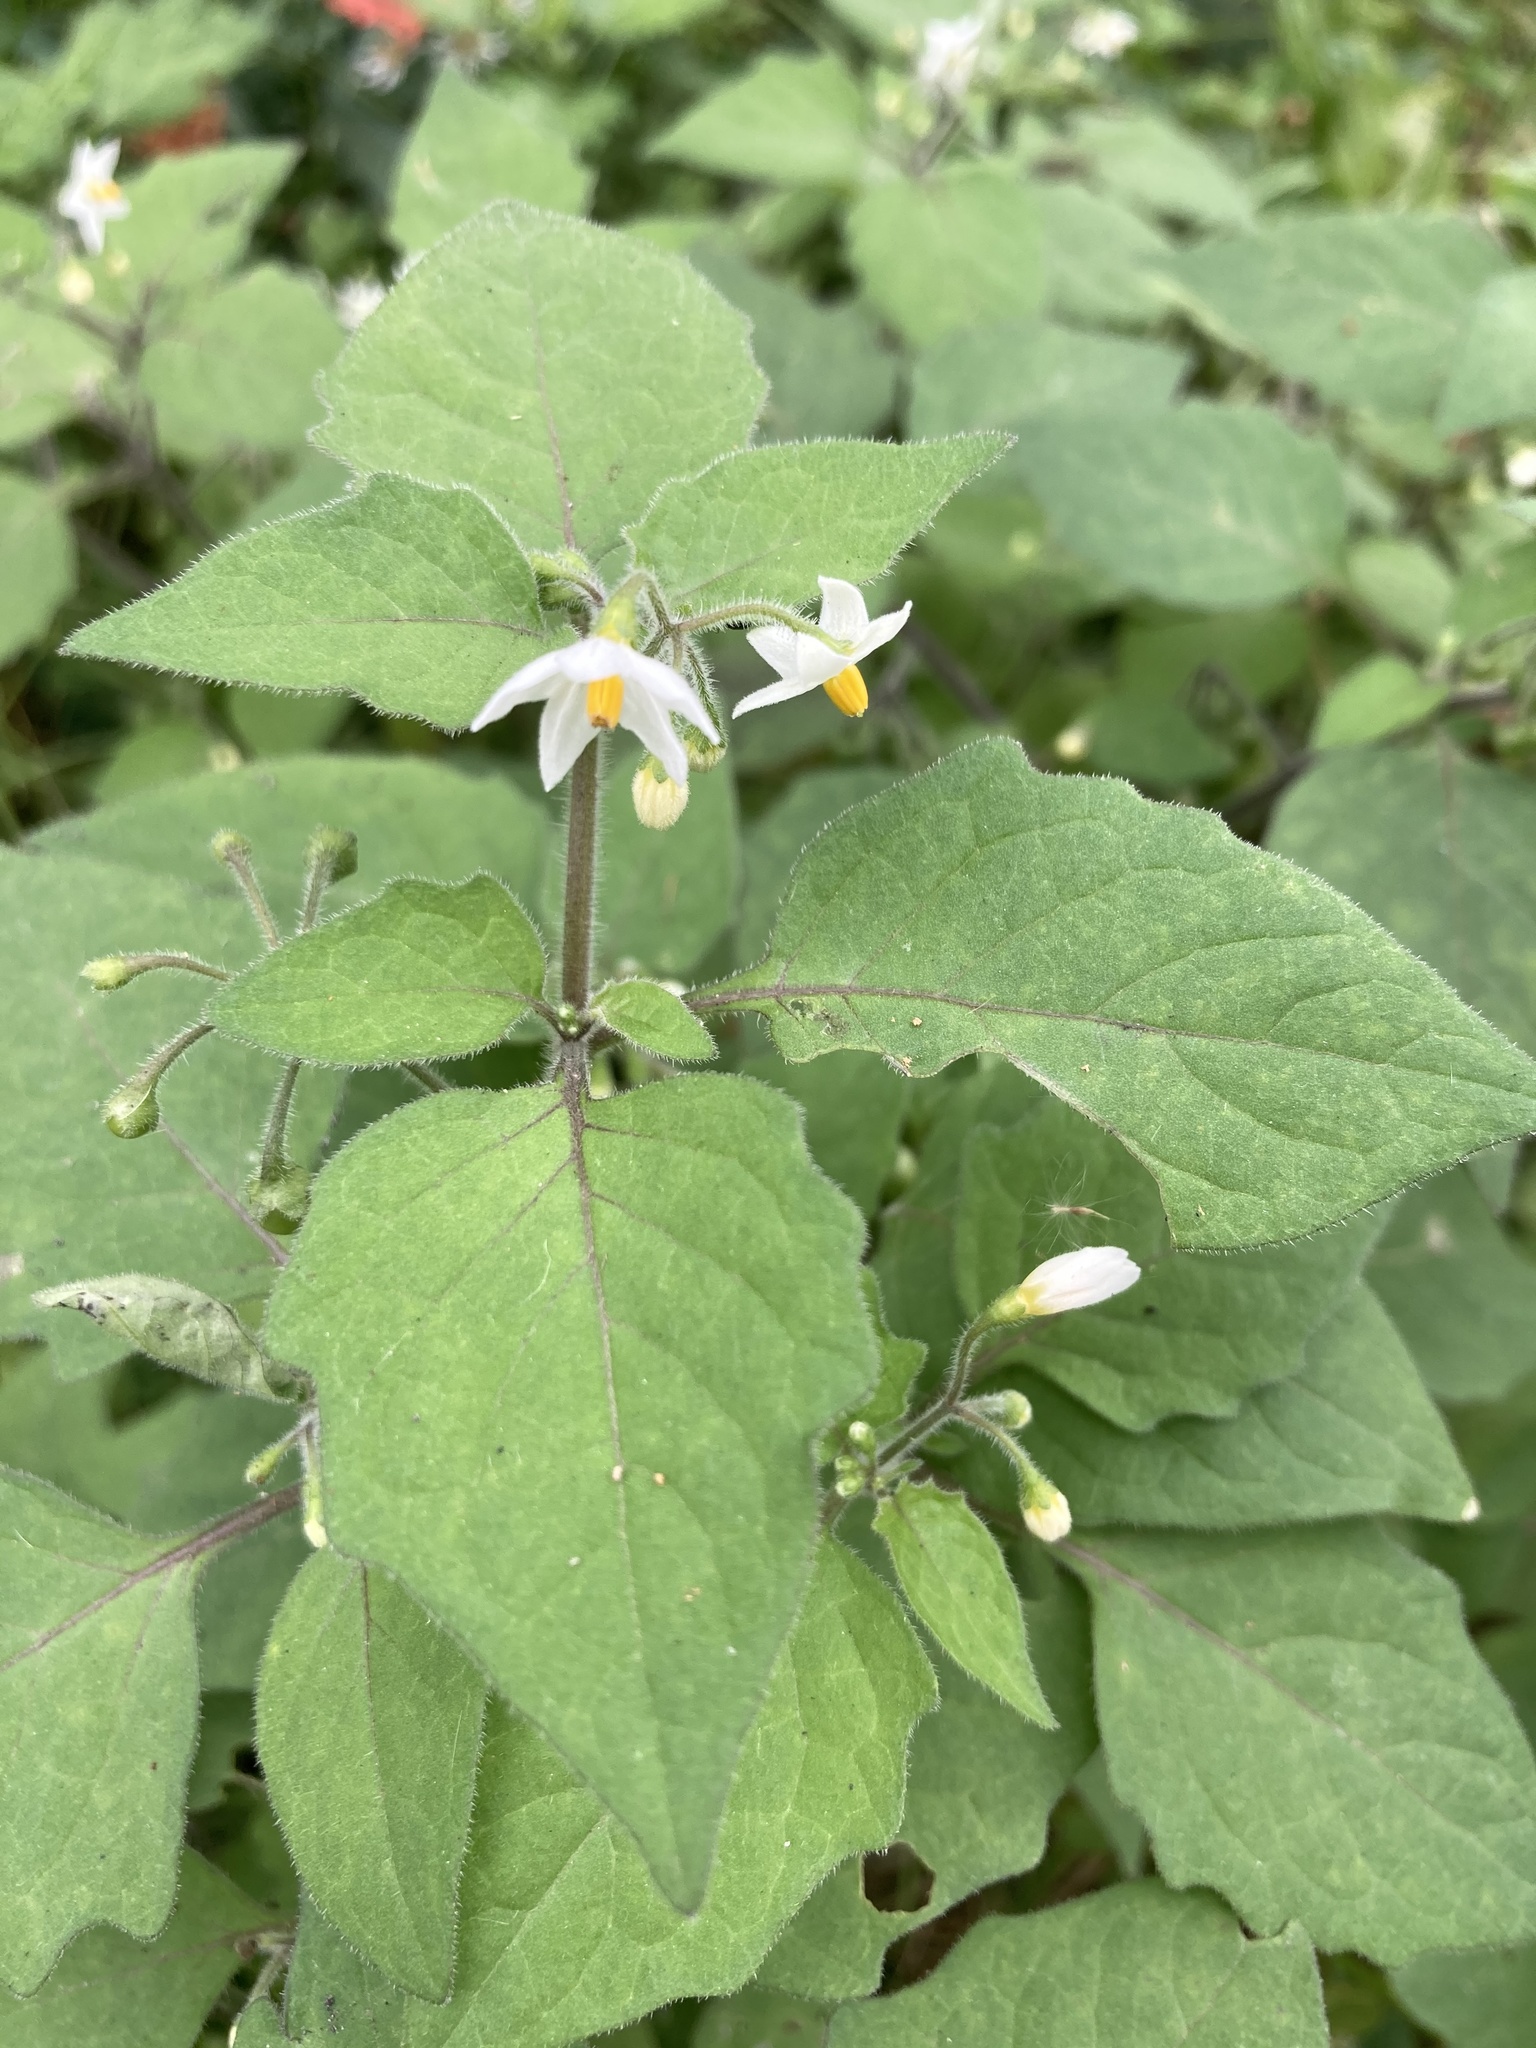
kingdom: Plantae
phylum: Tracheophyta
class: Magnoliopsida
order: Solanales
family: Solanaceae
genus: Solanum
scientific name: Solanum nigrum
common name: Black nightshade
